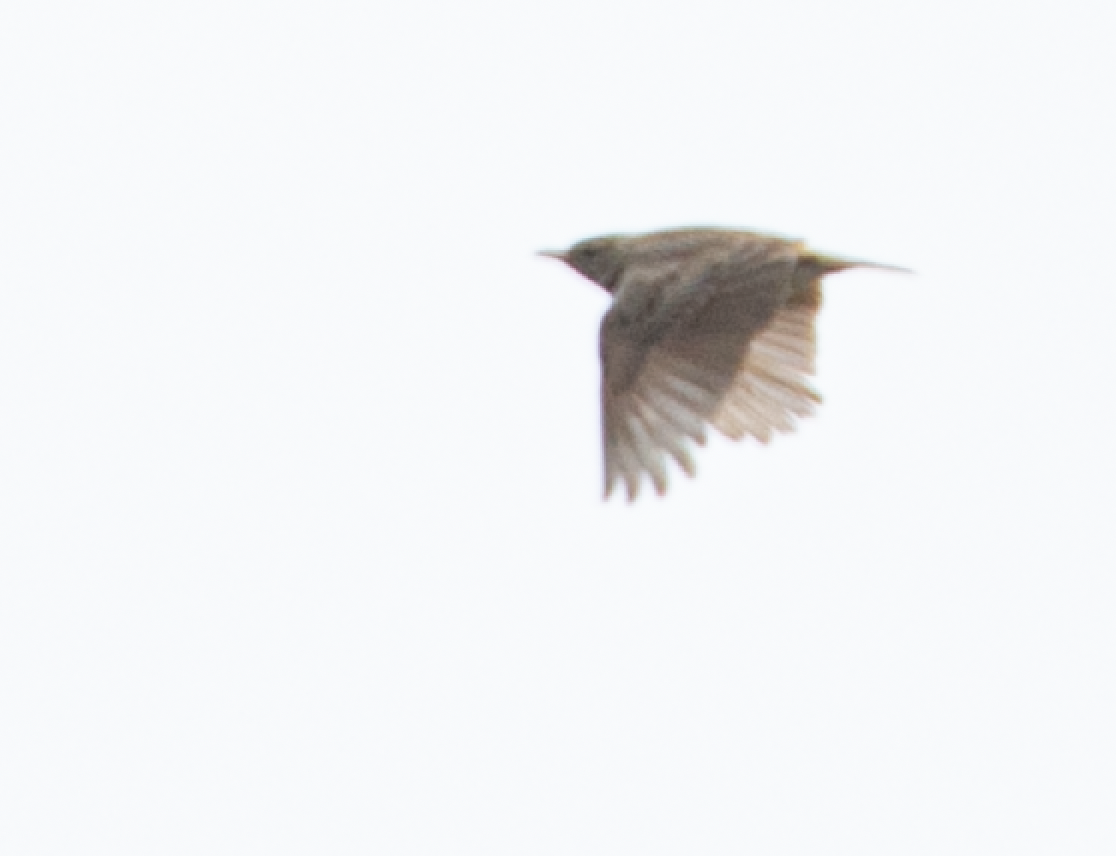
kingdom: Animalia
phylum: Chordata
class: Aves
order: Passeriformes
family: Alaudidae
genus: Galerida
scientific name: Galerida cristata
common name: Crested lark
